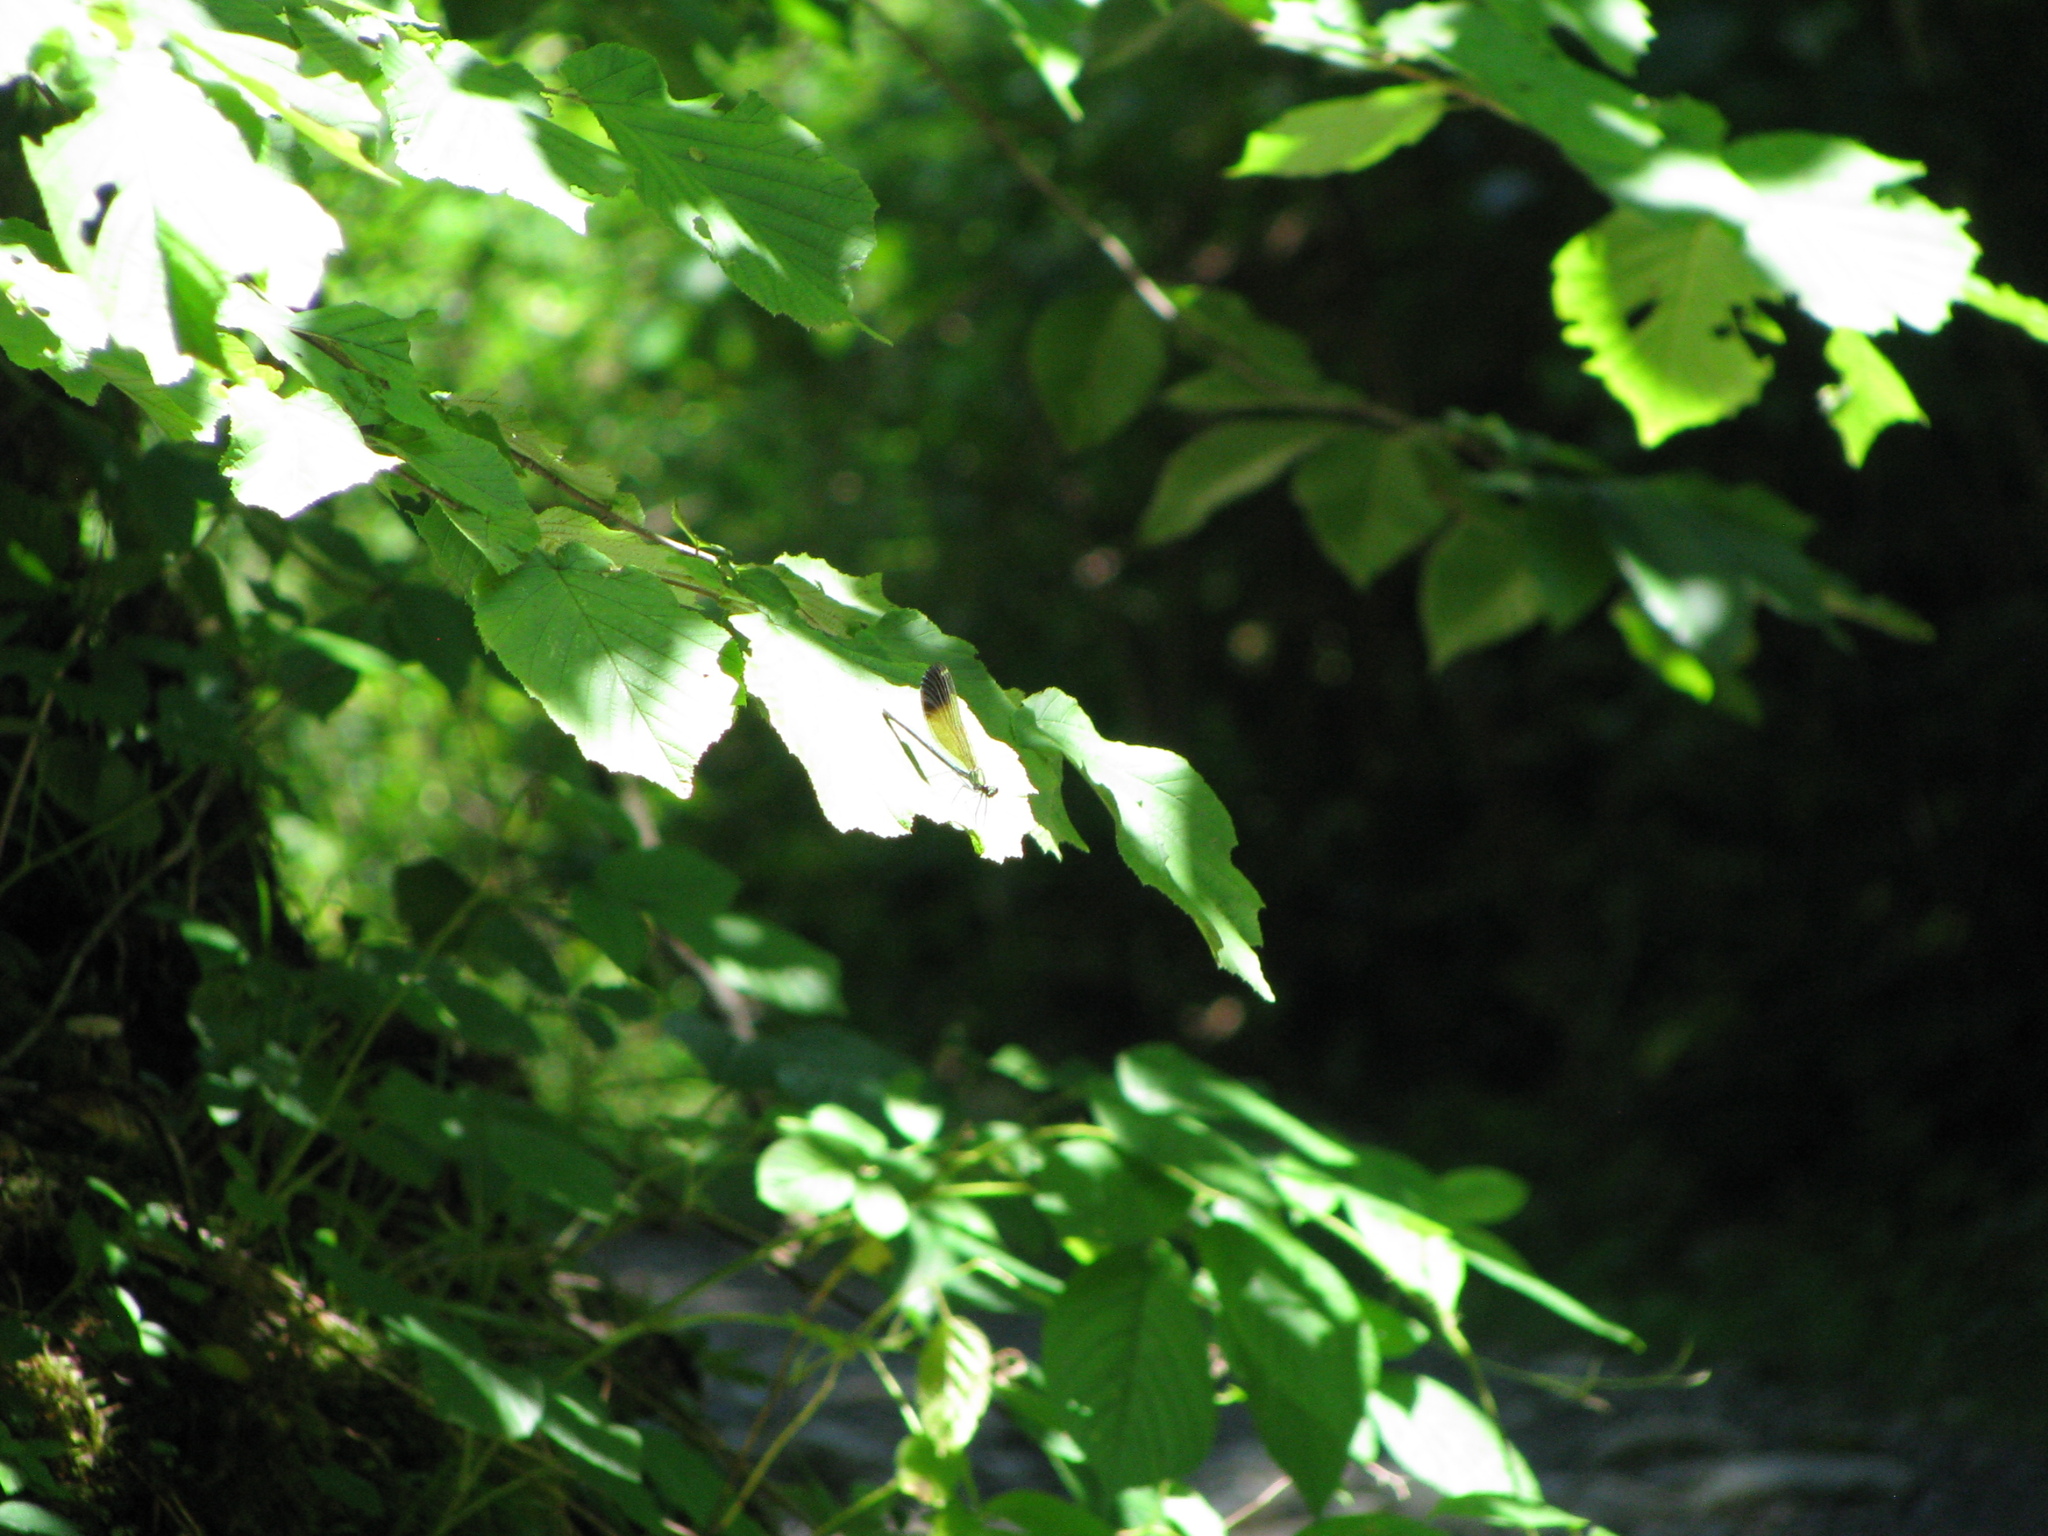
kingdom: Animalia
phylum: Arthropoda
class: Insecta
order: Odonata
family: Calopterygidae
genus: Calopteryx
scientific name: Calopteryx virgo
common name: Beautiful demoiselle
